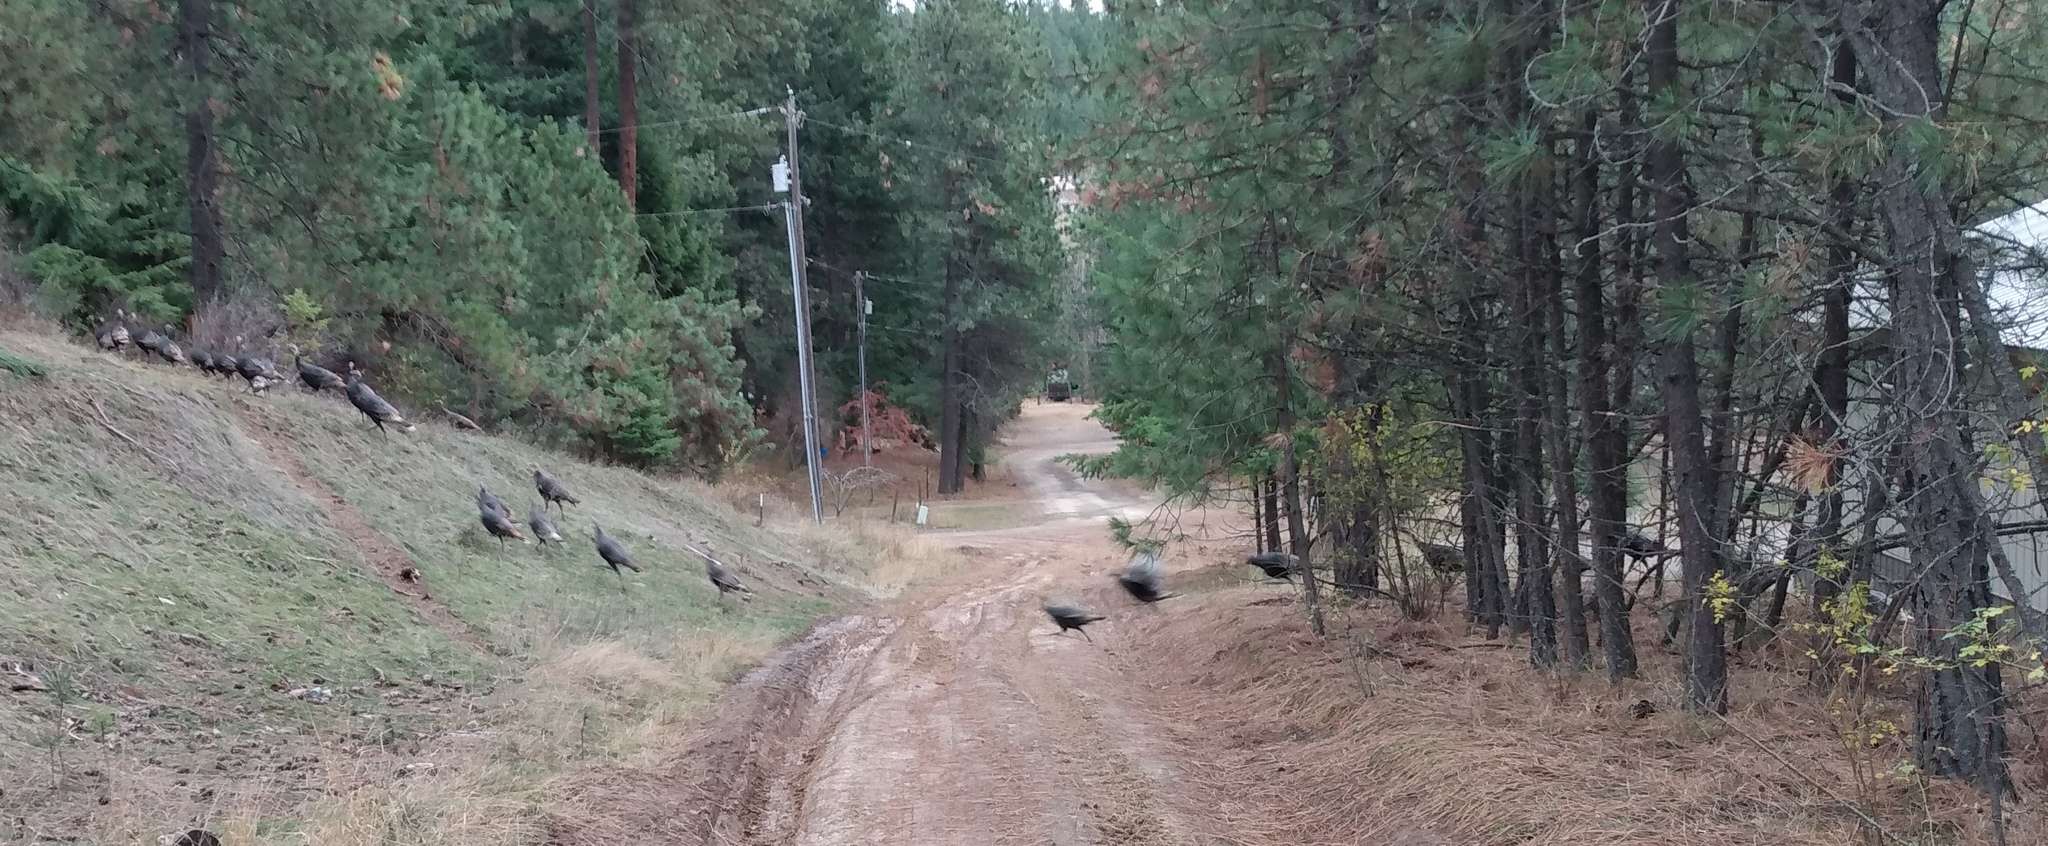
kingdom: Animalia
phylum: Chordata
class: Aves
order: Galliformes
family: Phasianidae
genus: Meleagris
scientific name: Meleagris gallopavo
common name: Wild turkey
